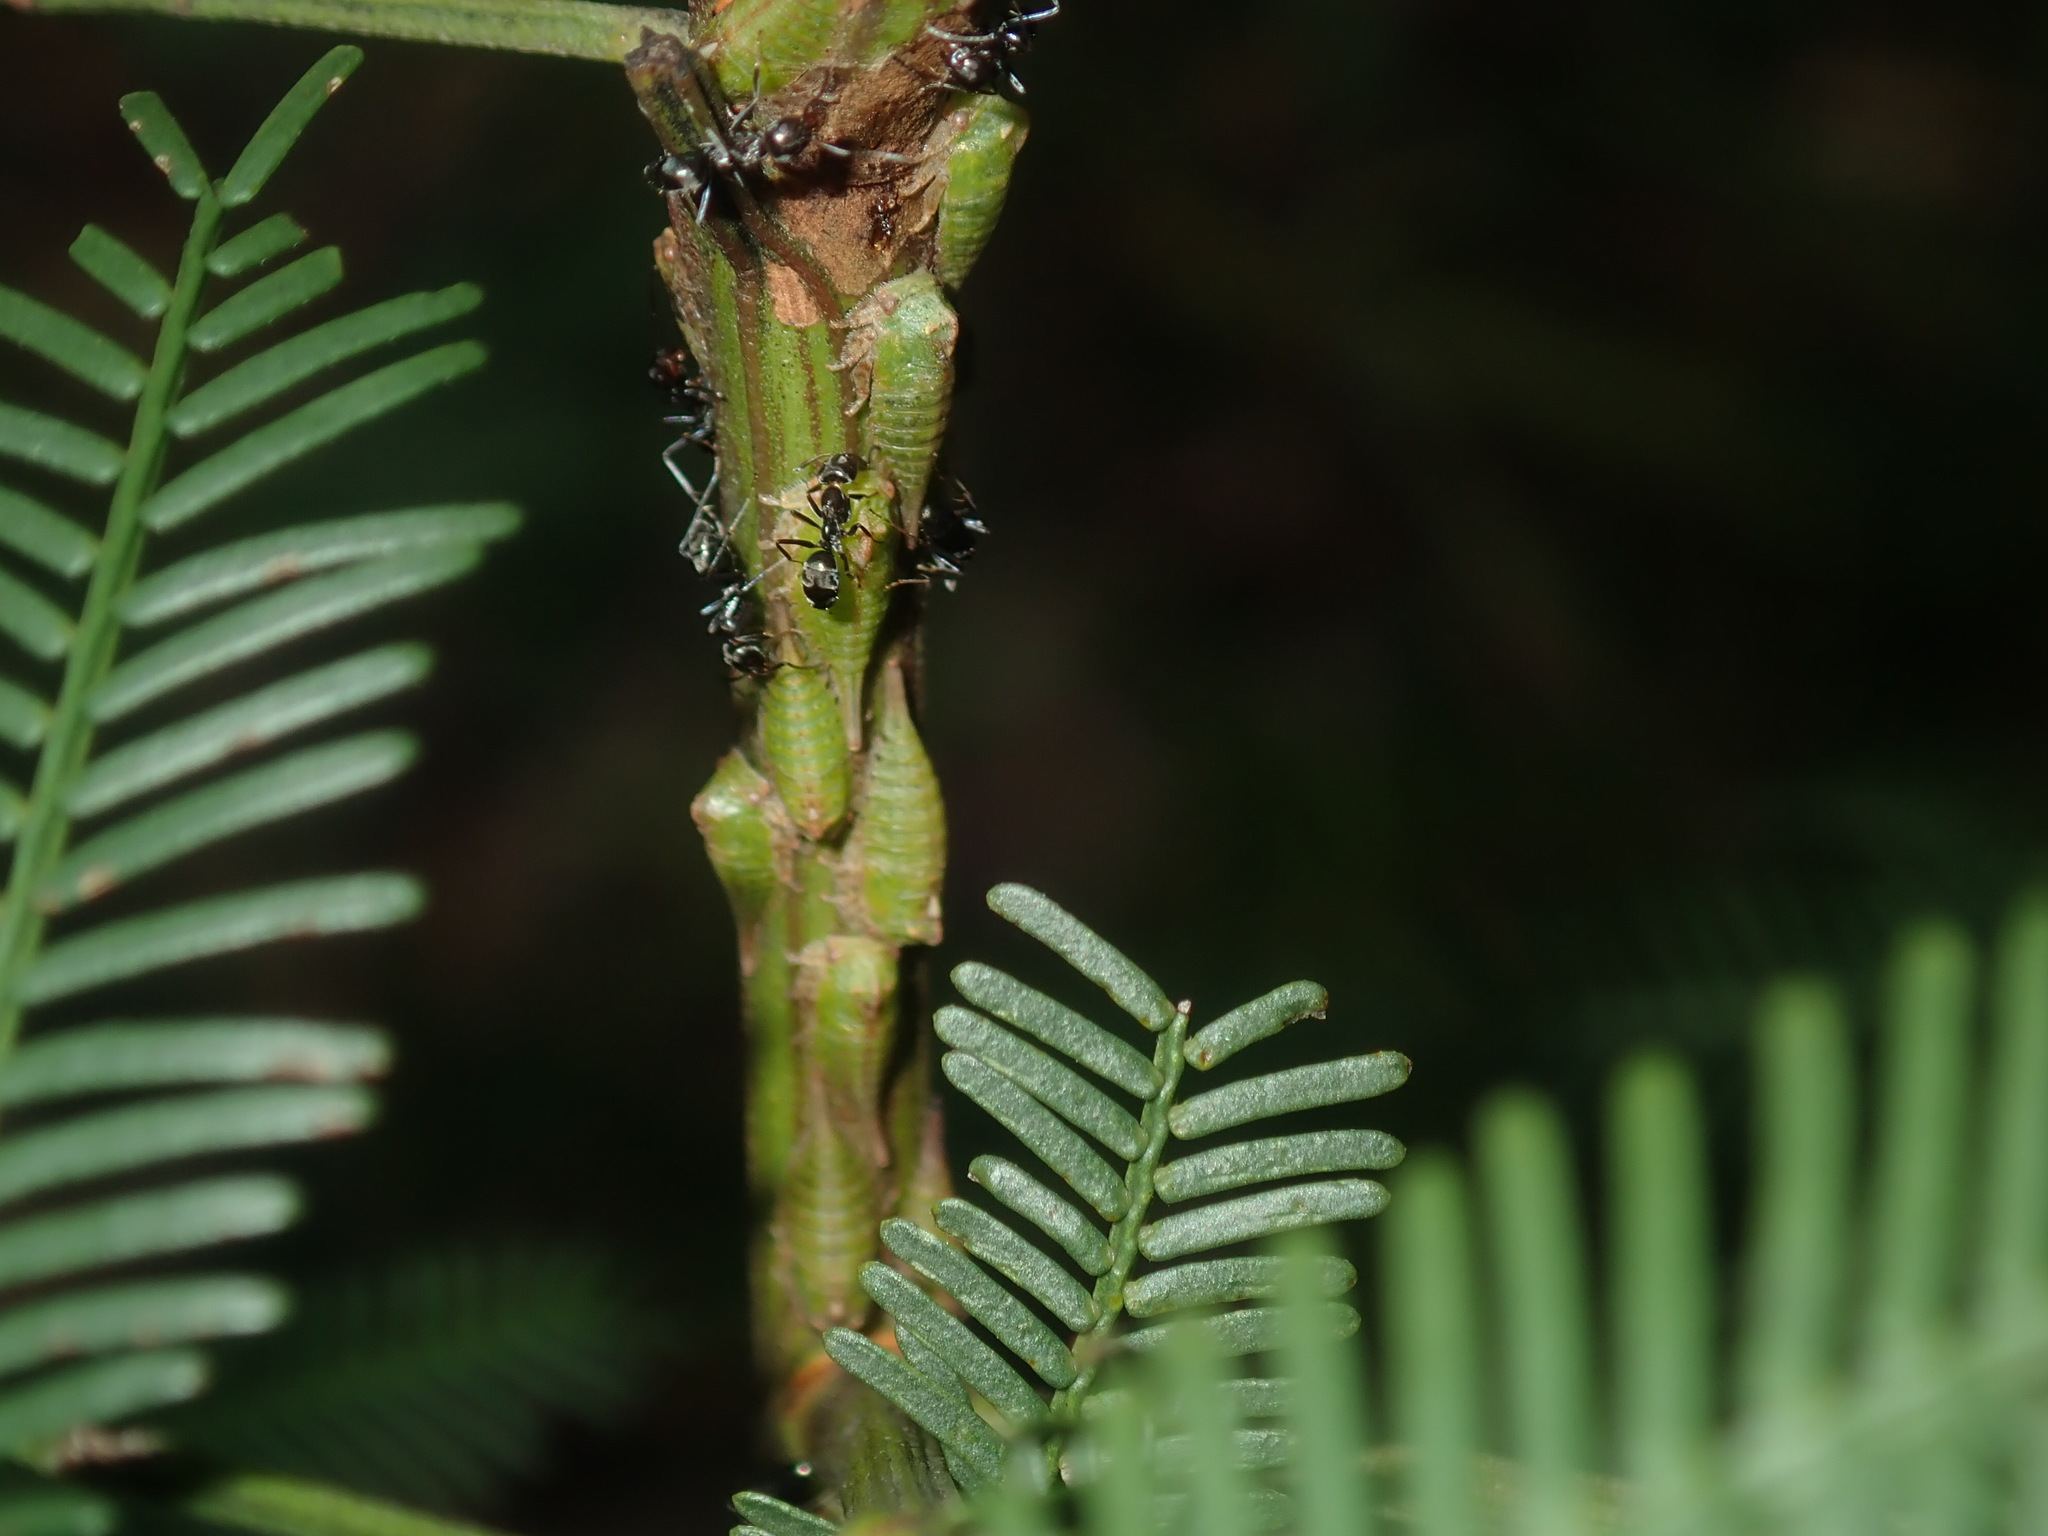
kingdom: Animalia
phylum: Arthropoda
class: Insecta
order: Hemiptera
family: Membracidae
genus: Sextius
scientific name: Sextius virescens
